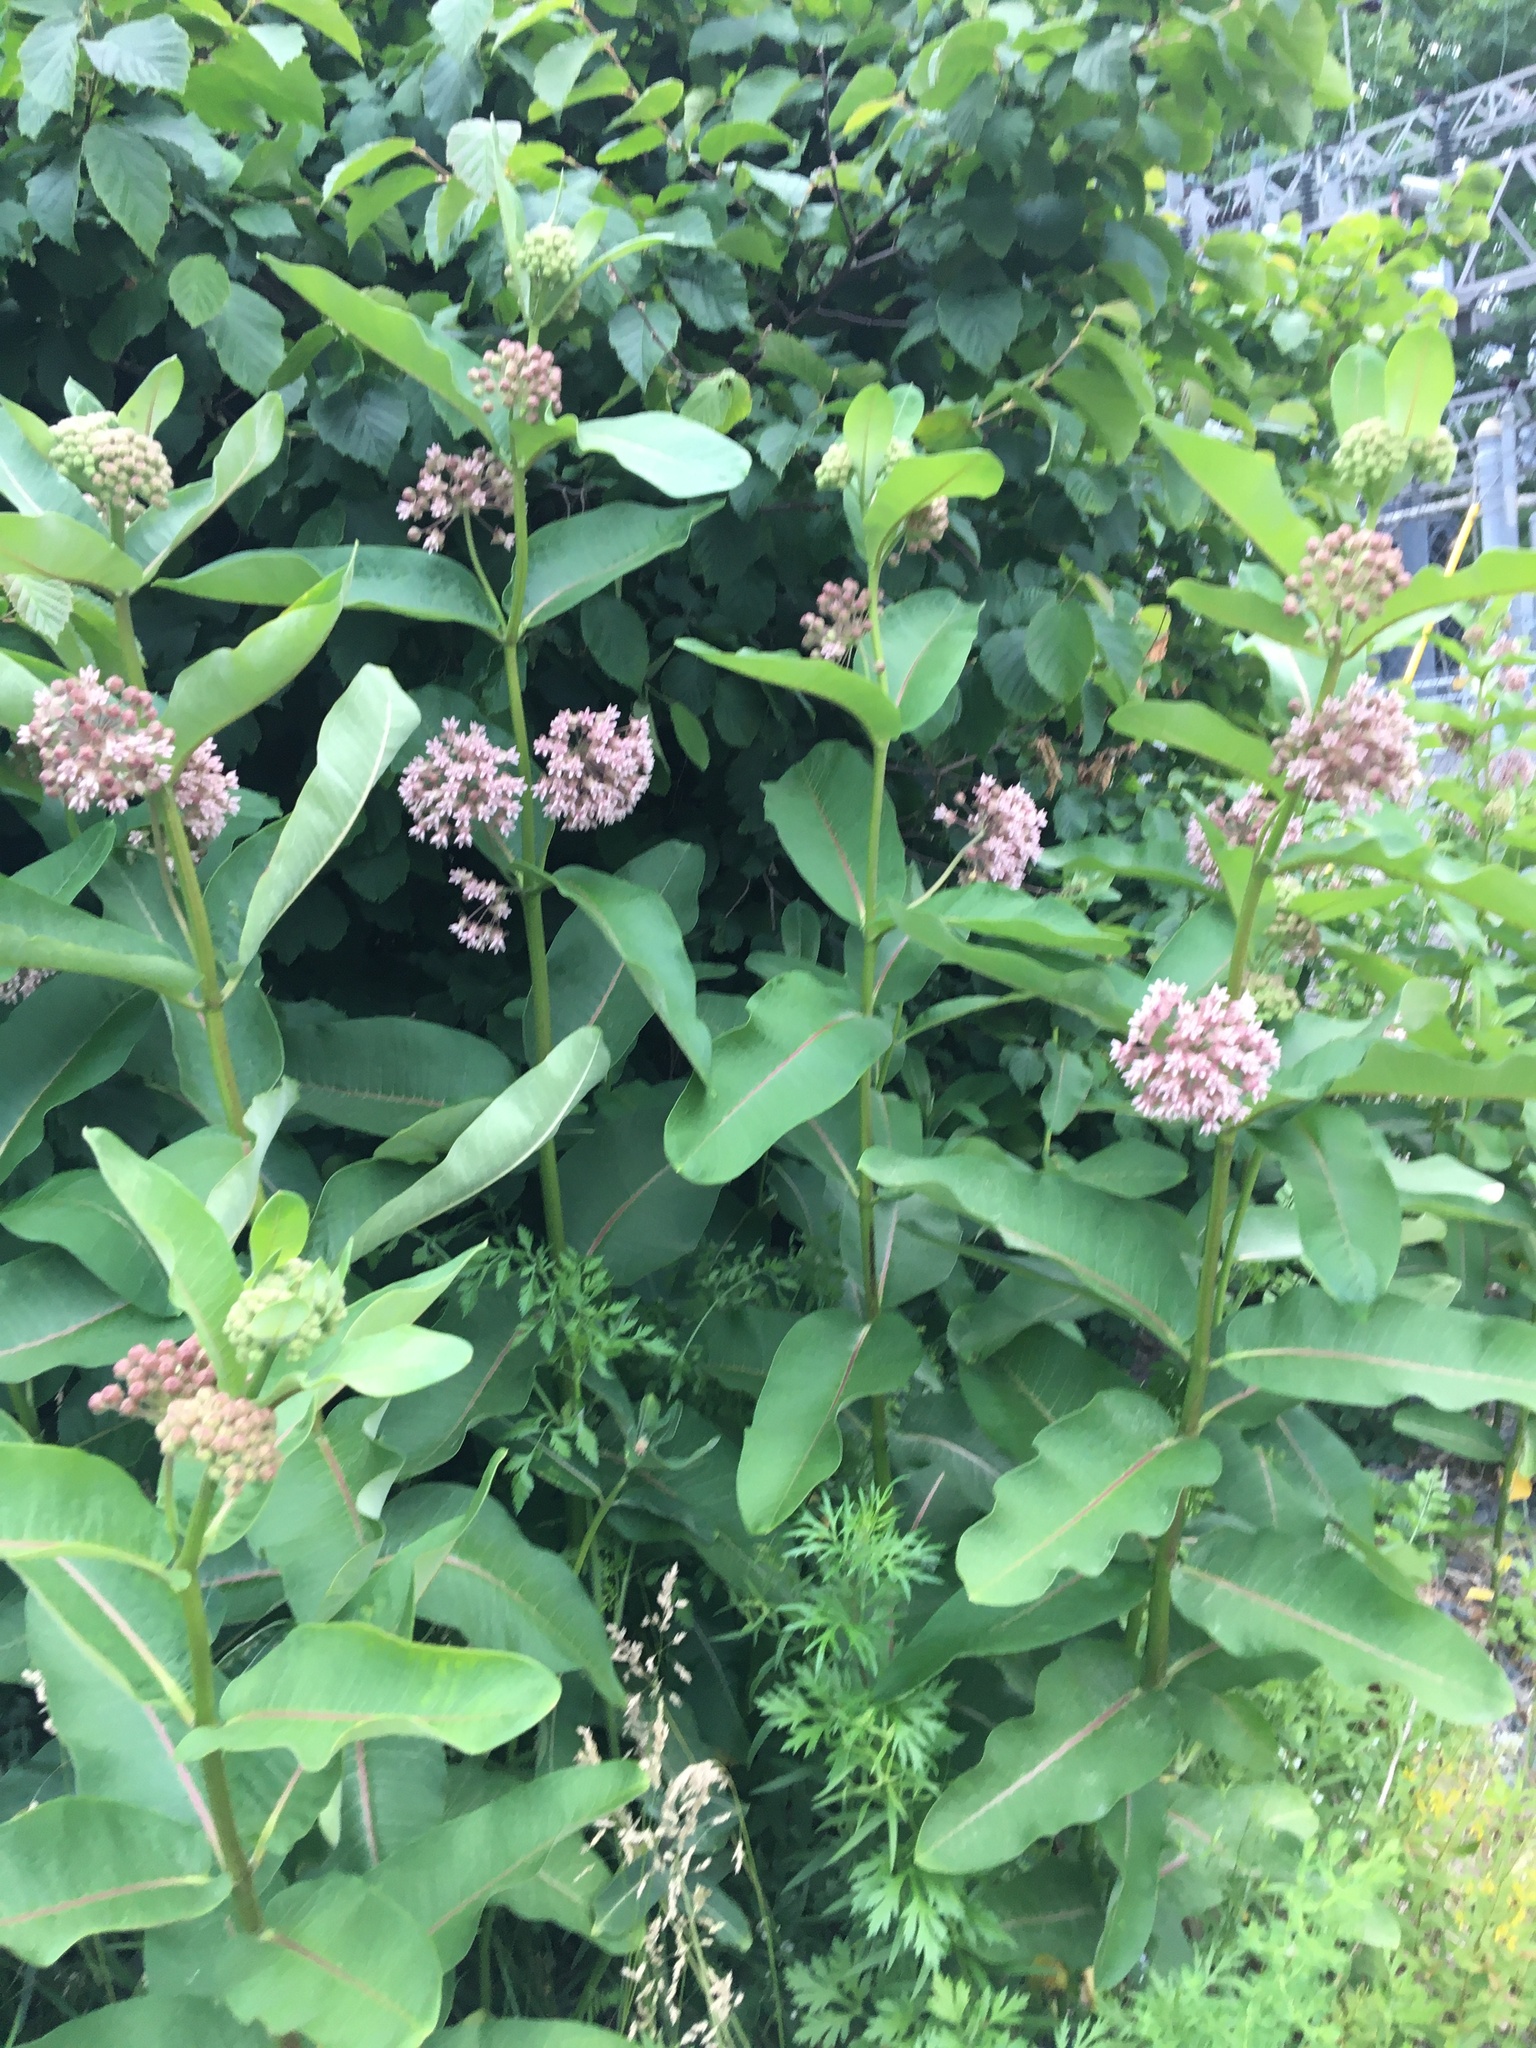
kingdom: Plantae
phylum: Tracheophyta
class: Magnoliopsida
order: Gentianales
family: Apocynaceae
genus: Asclepias
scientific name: Asclepias syriaca
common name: Common milkweed
